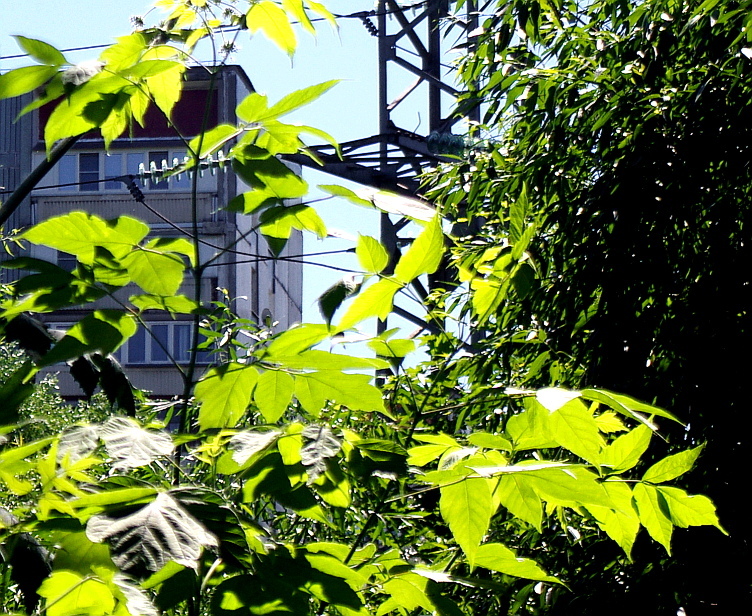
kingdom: Plantae
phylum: Tracheophyta
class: Magnoliopsida
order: Sapindales
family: Sapindaceae
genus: Acer
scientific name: Acer negundo
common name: Ashleaf maple
